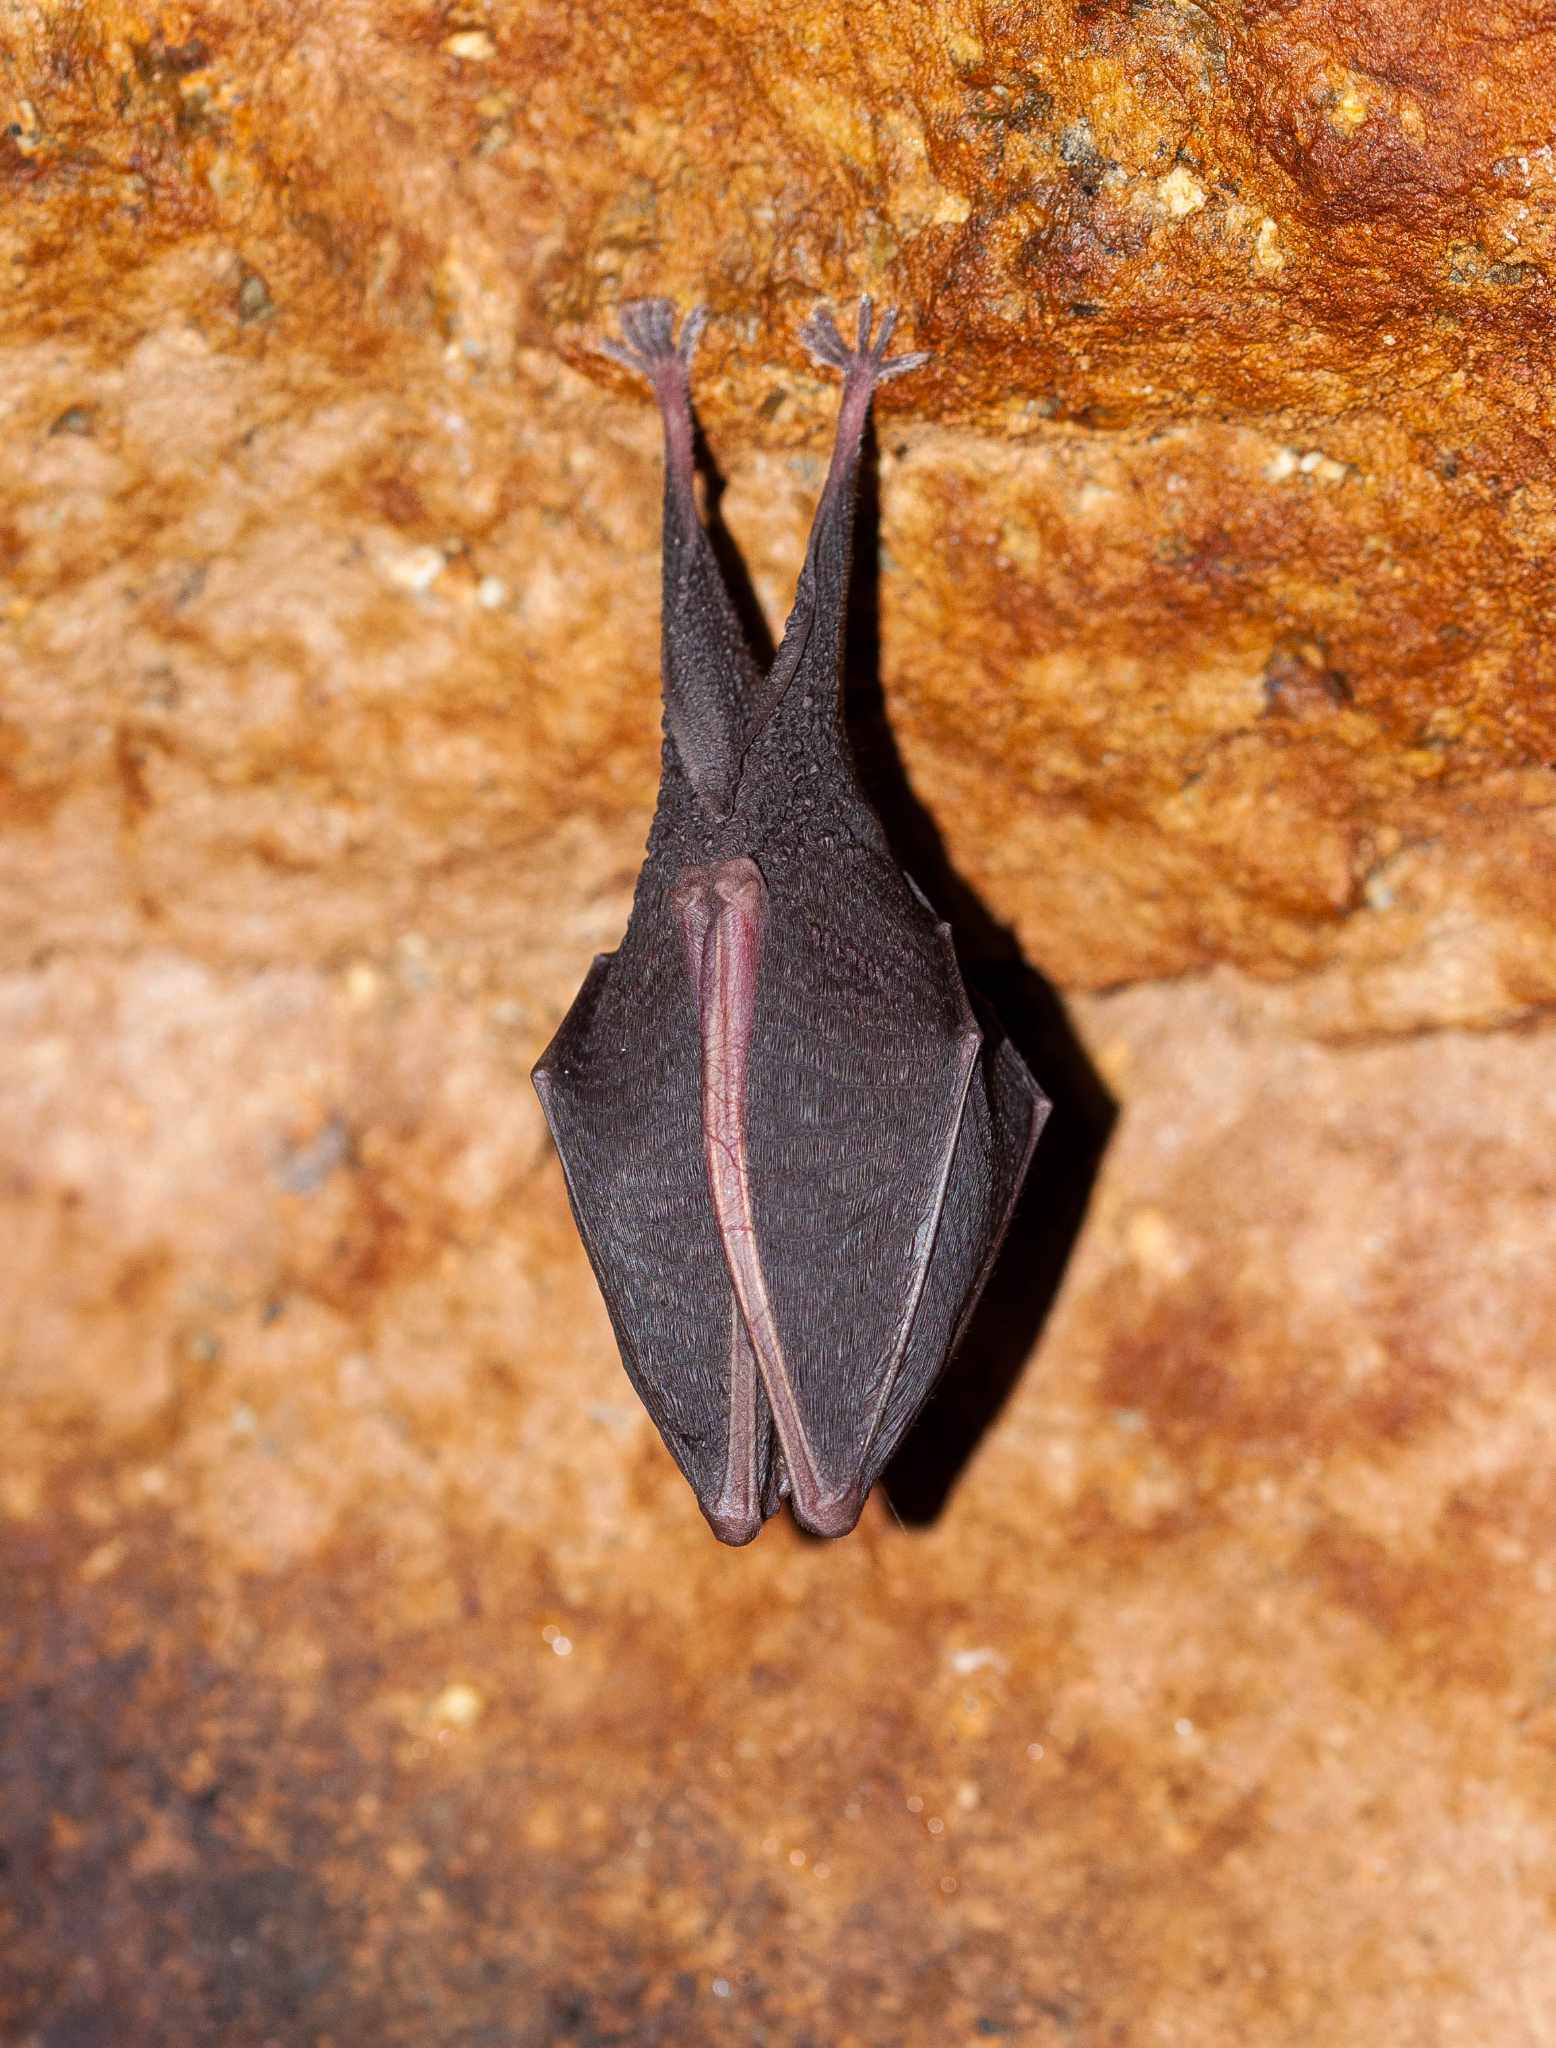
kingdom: Animalia
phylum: Chordata
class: Mammalia
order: Chiroptera
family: Rhinolophidae
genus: Rhinolophus
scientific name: Rhinolophus hipposideros
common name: Lesser horseshoe bat
